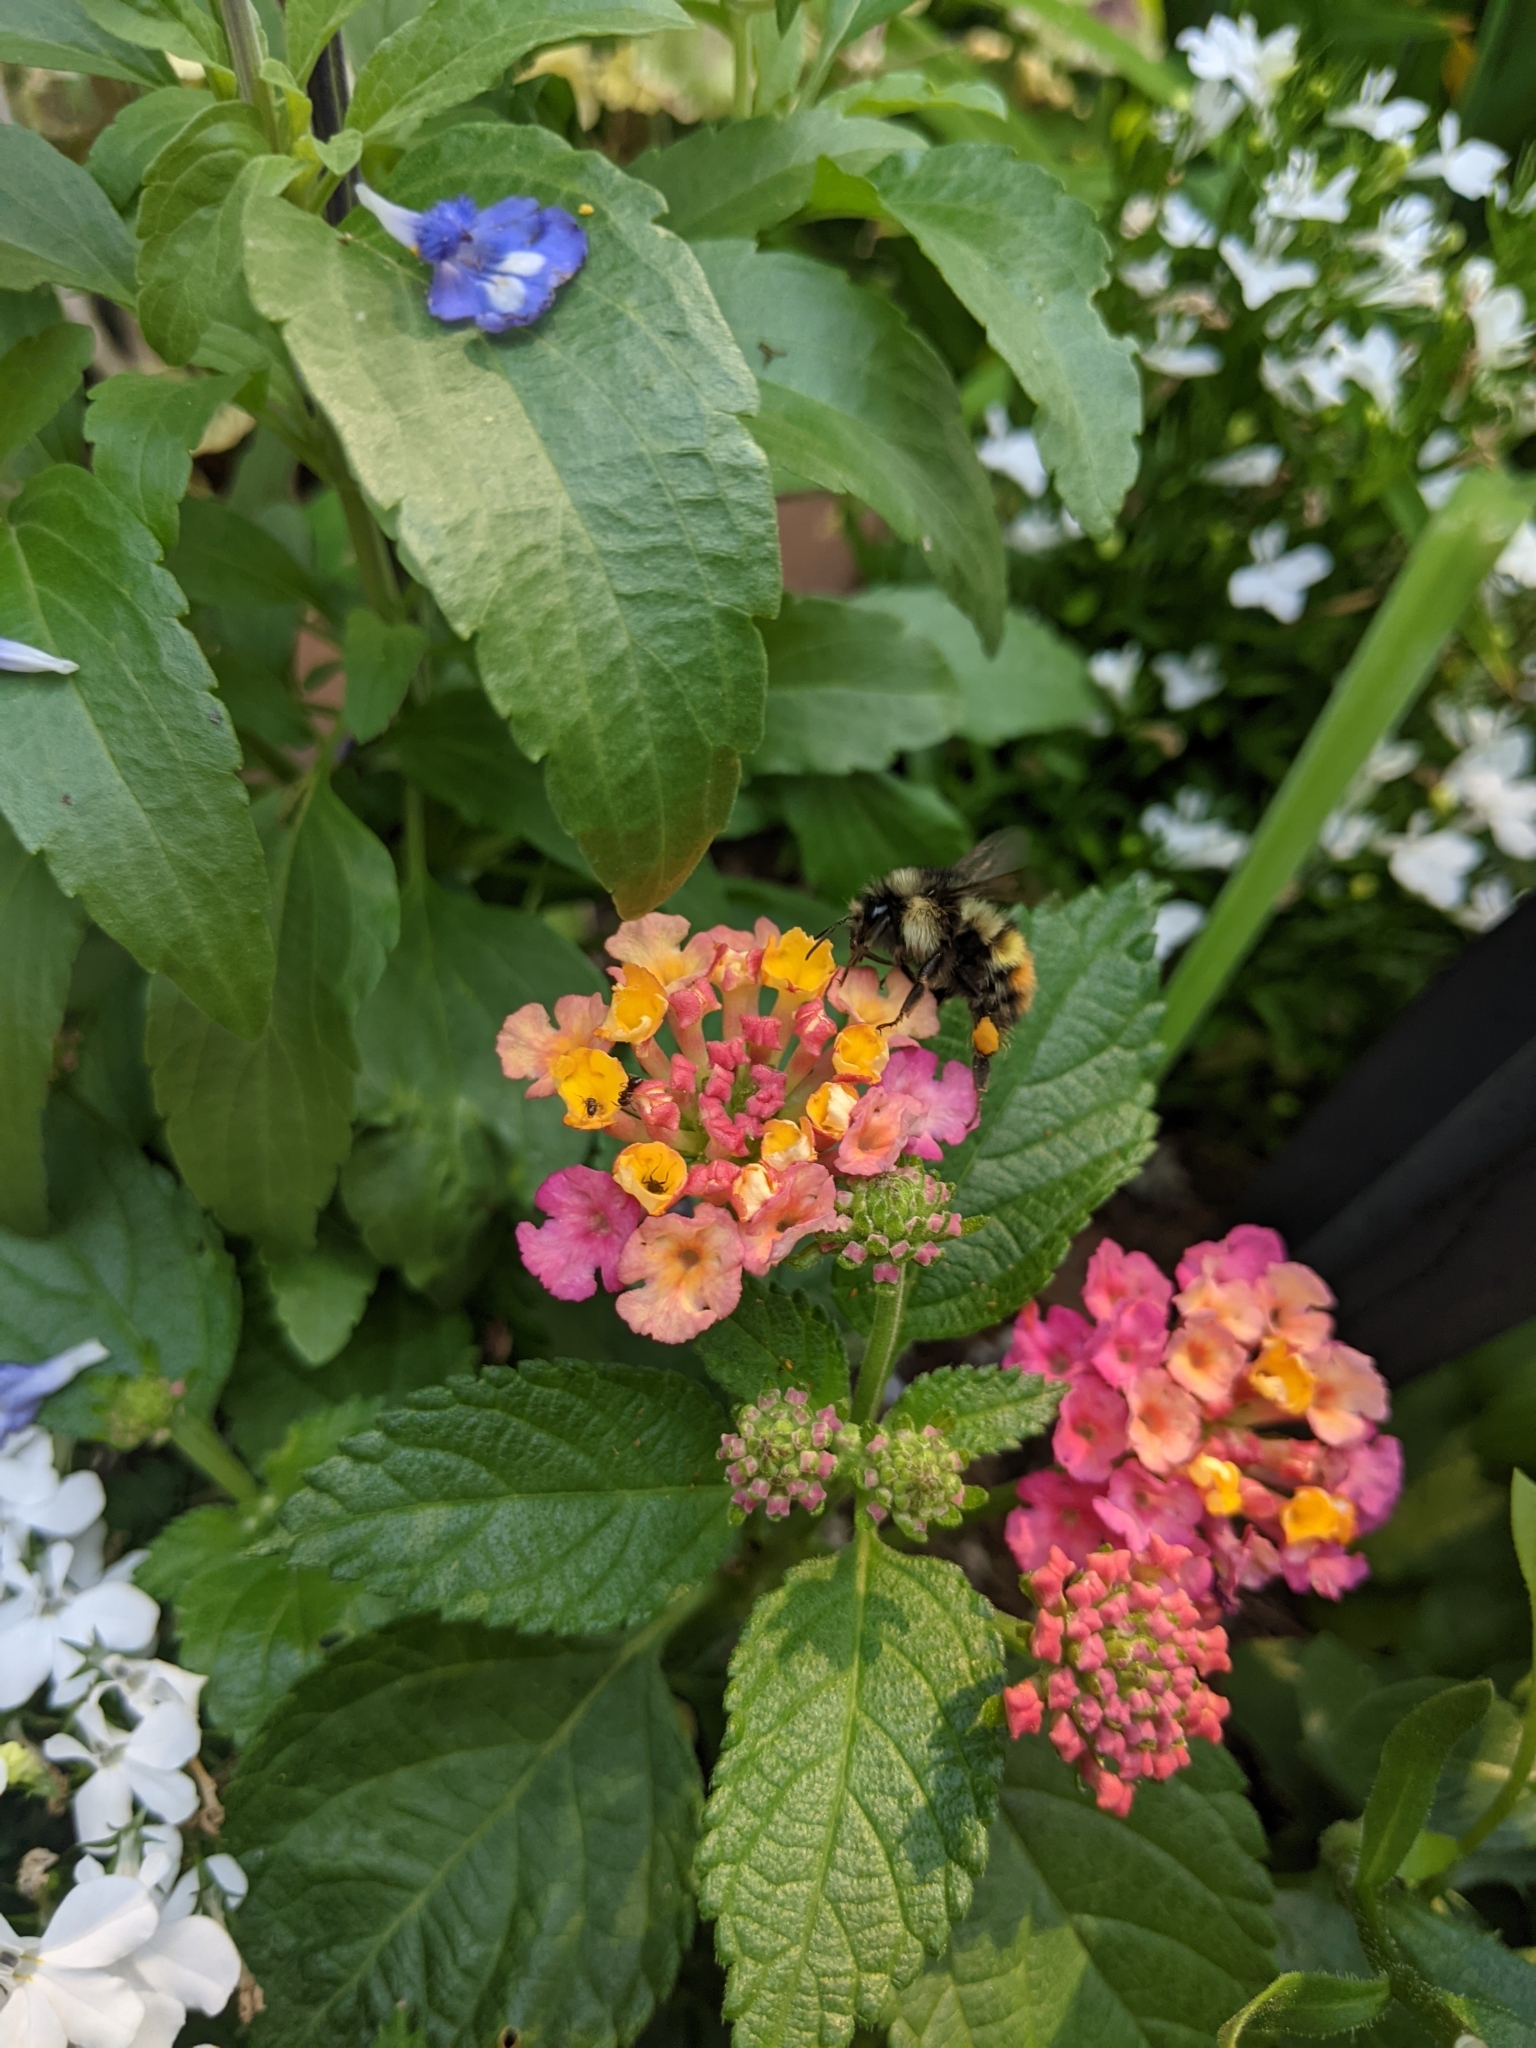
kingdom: Animalia
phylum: Arthropoda
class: Insecta
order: Hymenoptera
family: Apidae
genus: Bombus
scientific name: Bombus flavifrons
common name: Yellow head bumble bee
